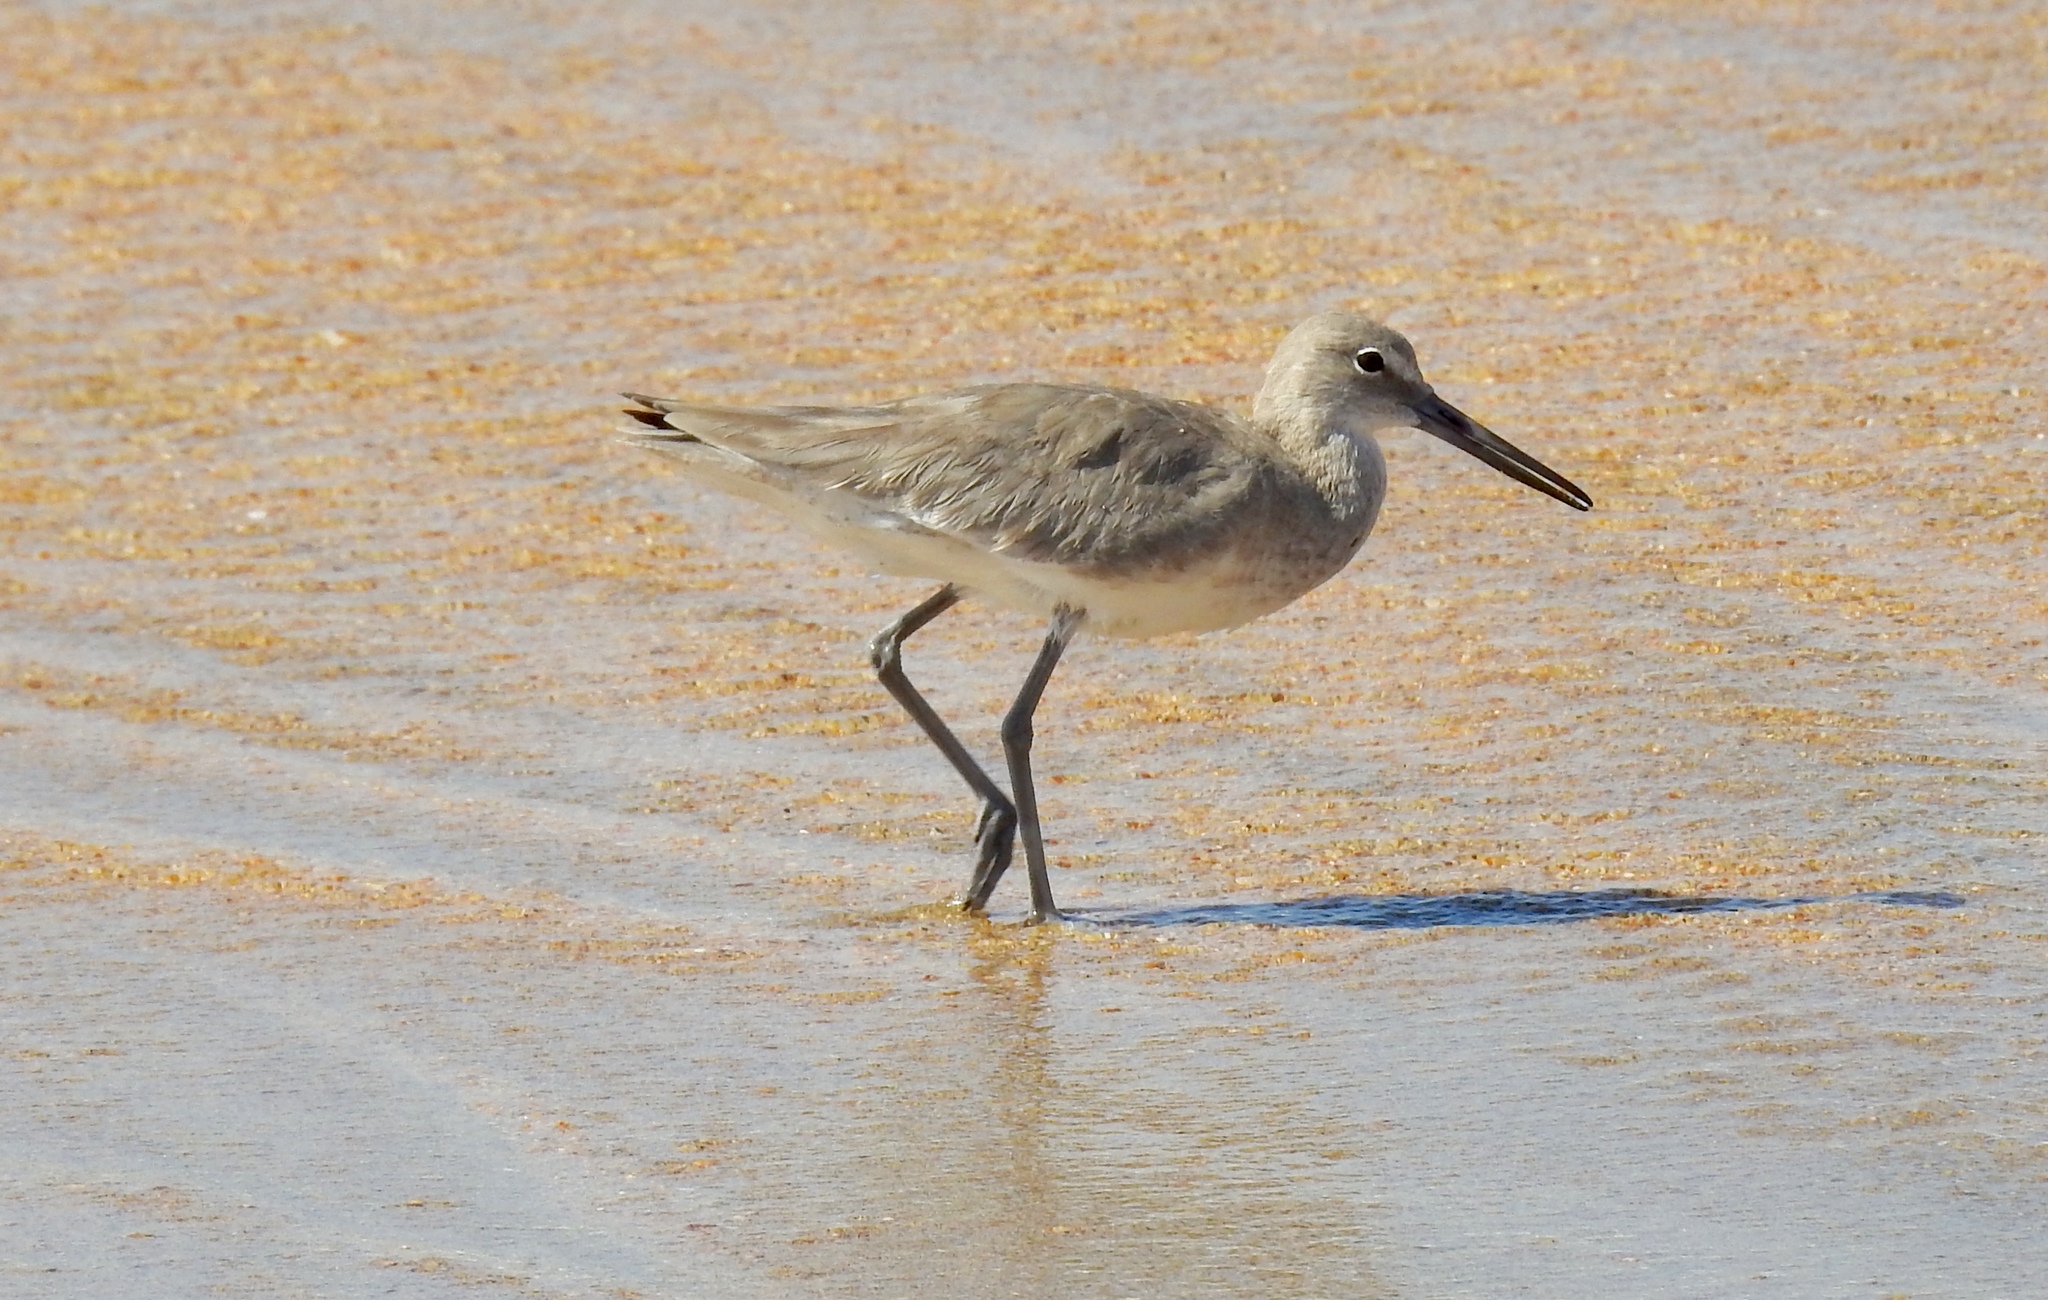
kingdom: Animalia
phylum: Chordata
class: Aves
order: Charadriiformes
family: Scolopacidae
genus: Tringa
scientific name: Tringa semipalmata
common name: Willet
